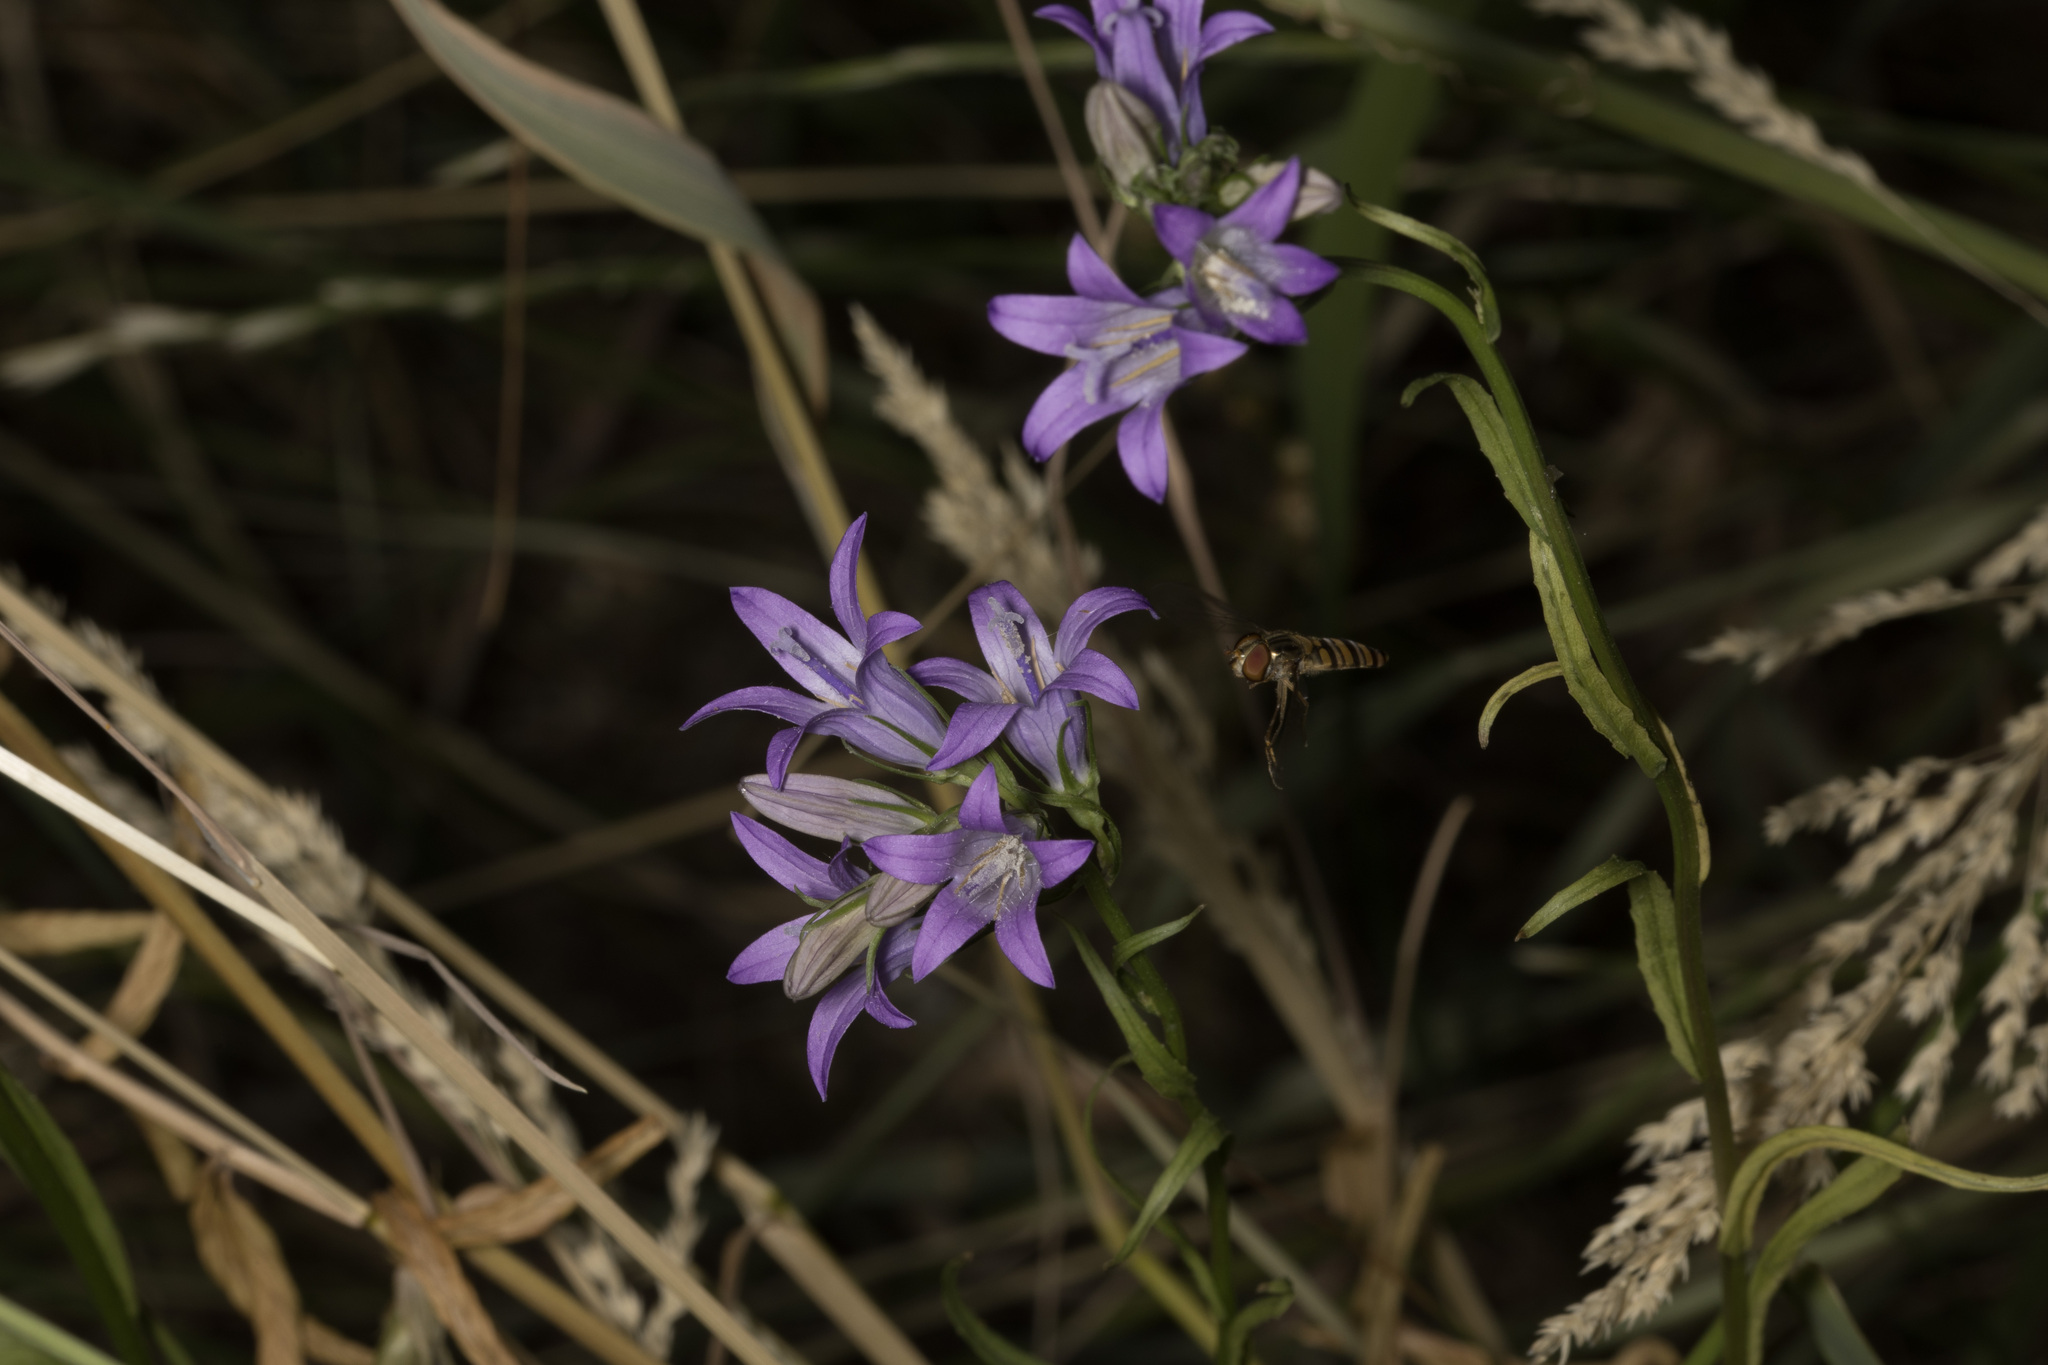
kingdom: Animalia
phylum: Arthropoda
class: Insecta
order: Diptera
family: Syrphidae
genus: Episyrphus
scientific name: Episyrphus balteatus
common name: Marmalade hoverfly
